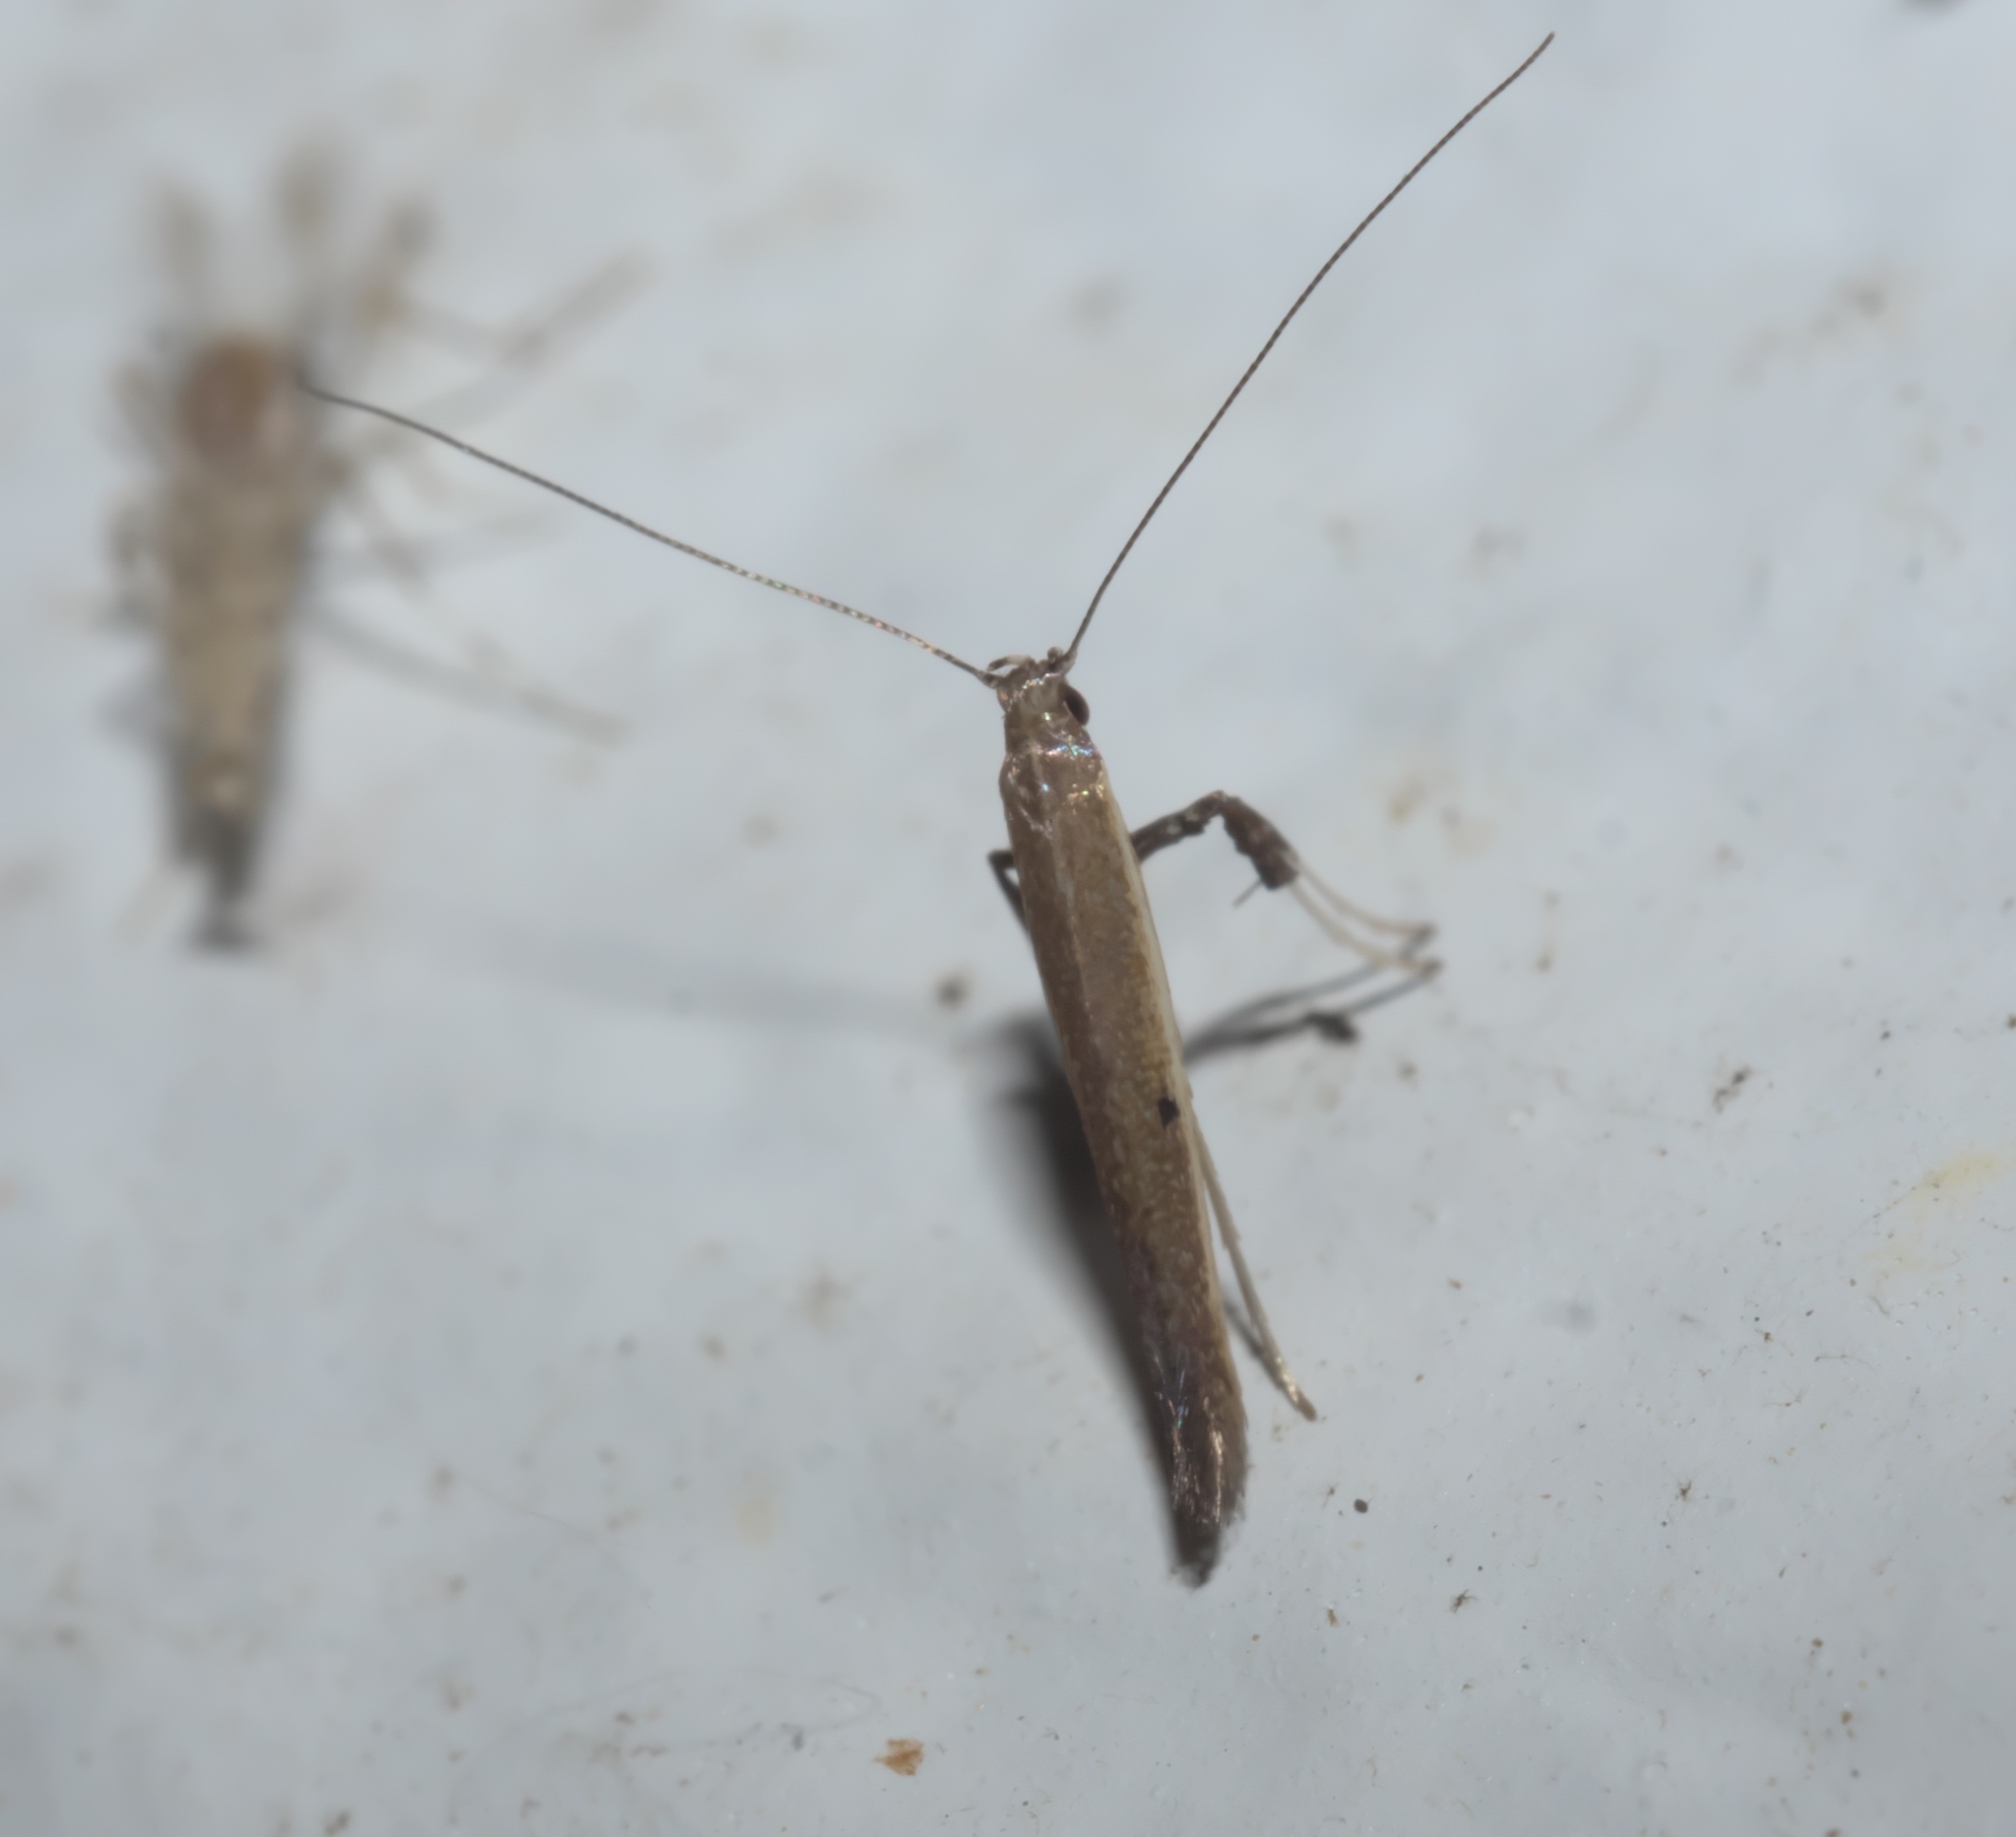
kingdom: Animalia
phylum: Arthropoda
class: Insecta
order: Lepidoptera
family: Gracillariidae
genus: Caloptilia
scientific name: Caloptilia violacella
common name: Tick-trefoil caloptilia moth
